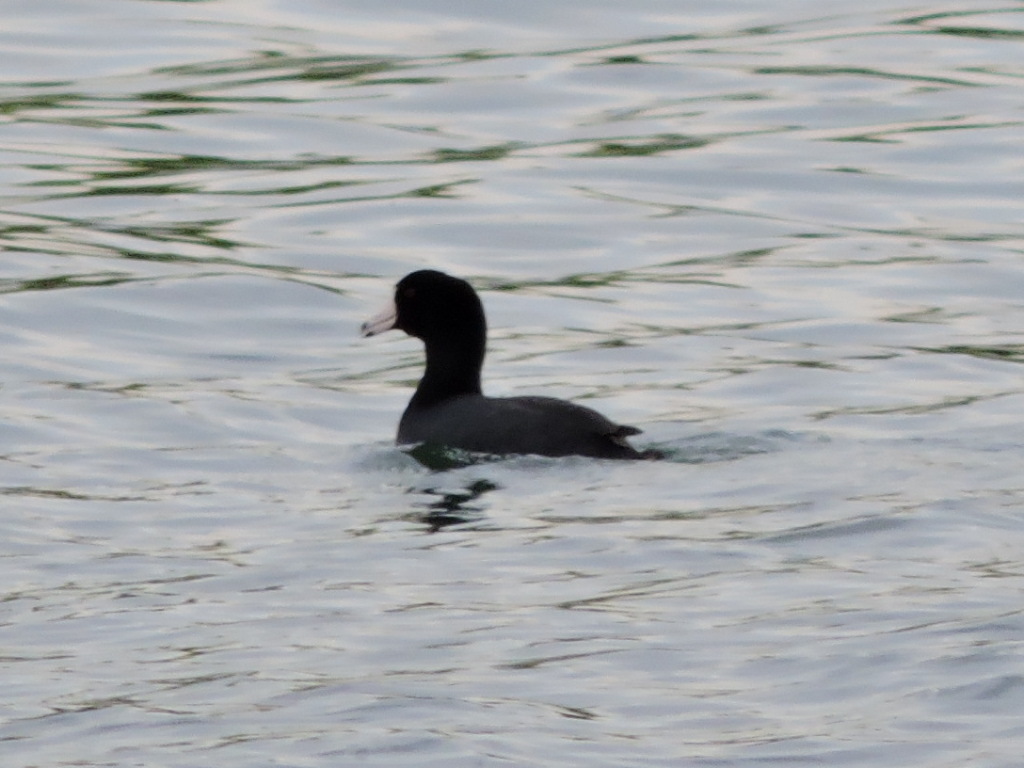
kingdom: Animalia
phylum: Chordata
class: Aves
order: Gruiformes
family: Rallidae
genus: Fulica
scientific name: Fulica americana
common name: American coot
